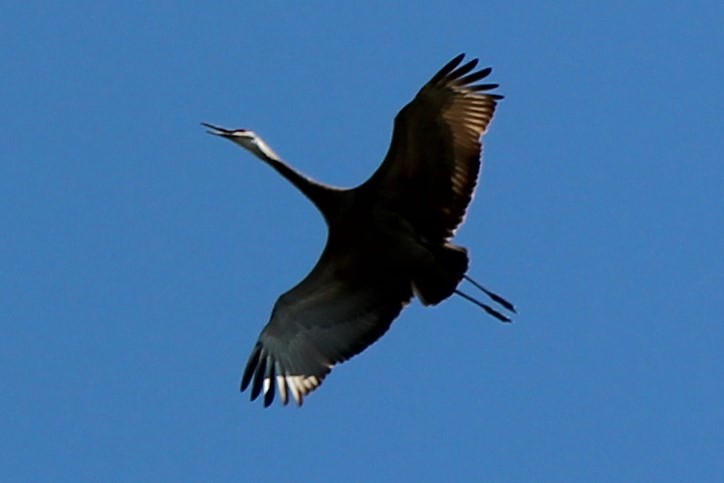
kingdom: Animalia
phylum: Chordata
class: Aves
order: Gruiformes
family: Gruidae
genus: Grus
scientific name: Grus canadensis
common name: Sandhill crane
